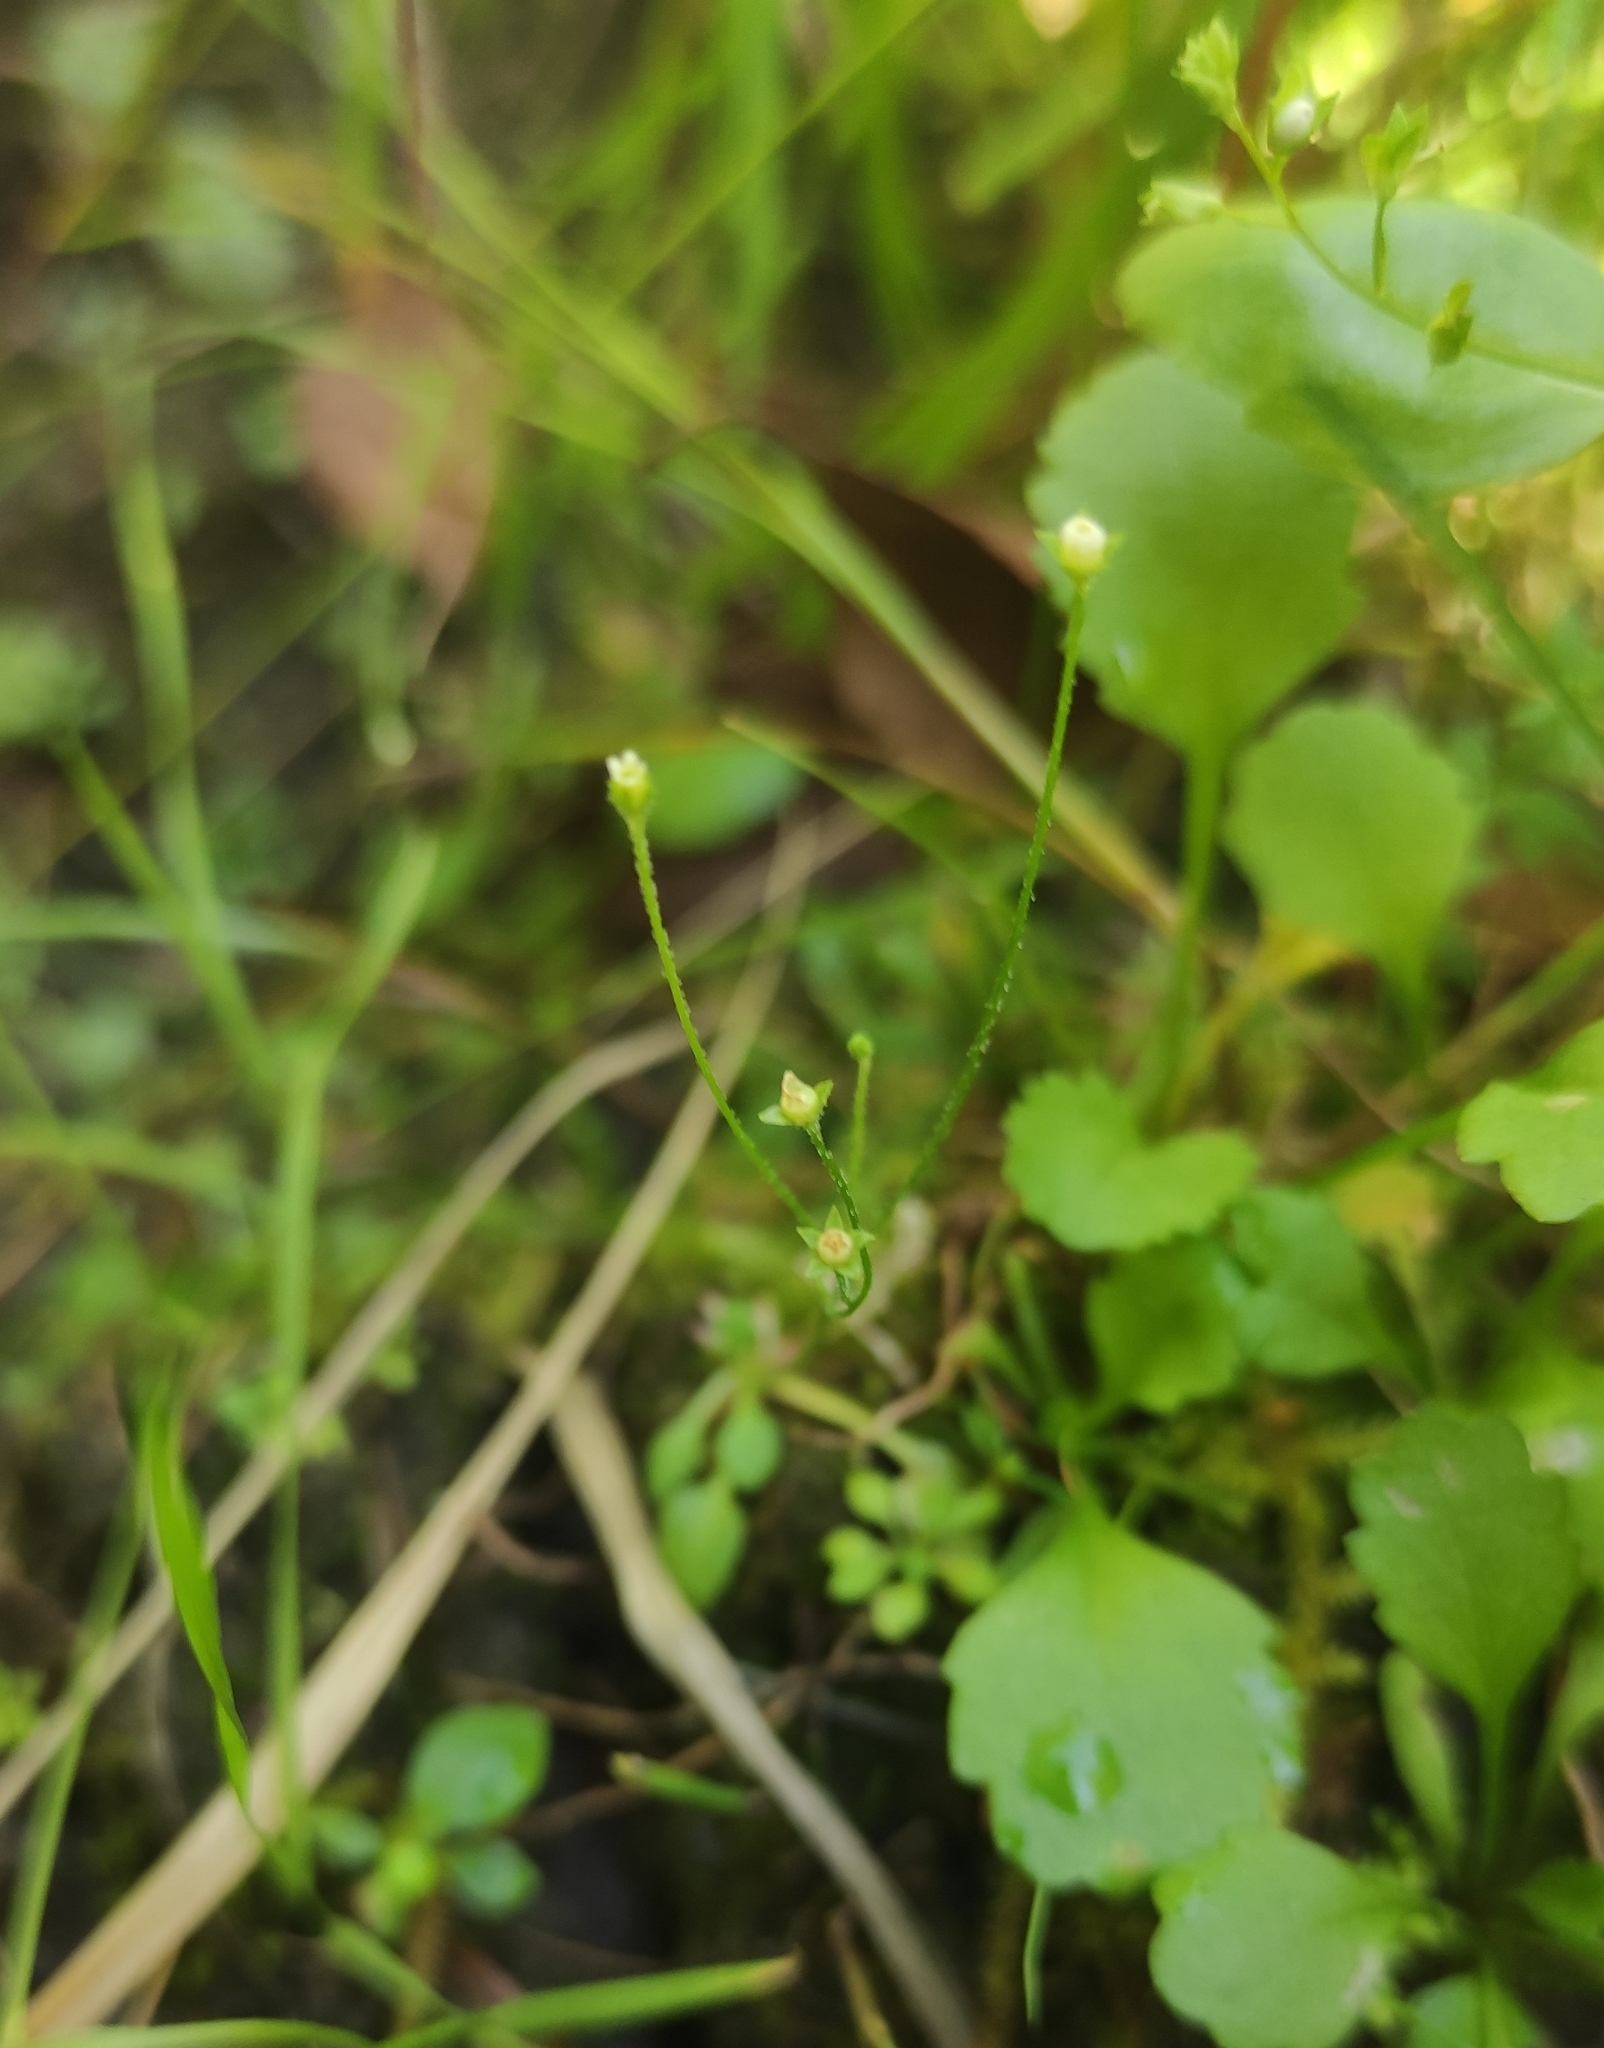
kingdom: Plantae
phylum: Tracheophyta
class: Magnoliopsida
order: Ericales
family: Primulaceae
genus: Androsace
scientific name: Androsace filiformis
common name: Filiform rock jasmine
